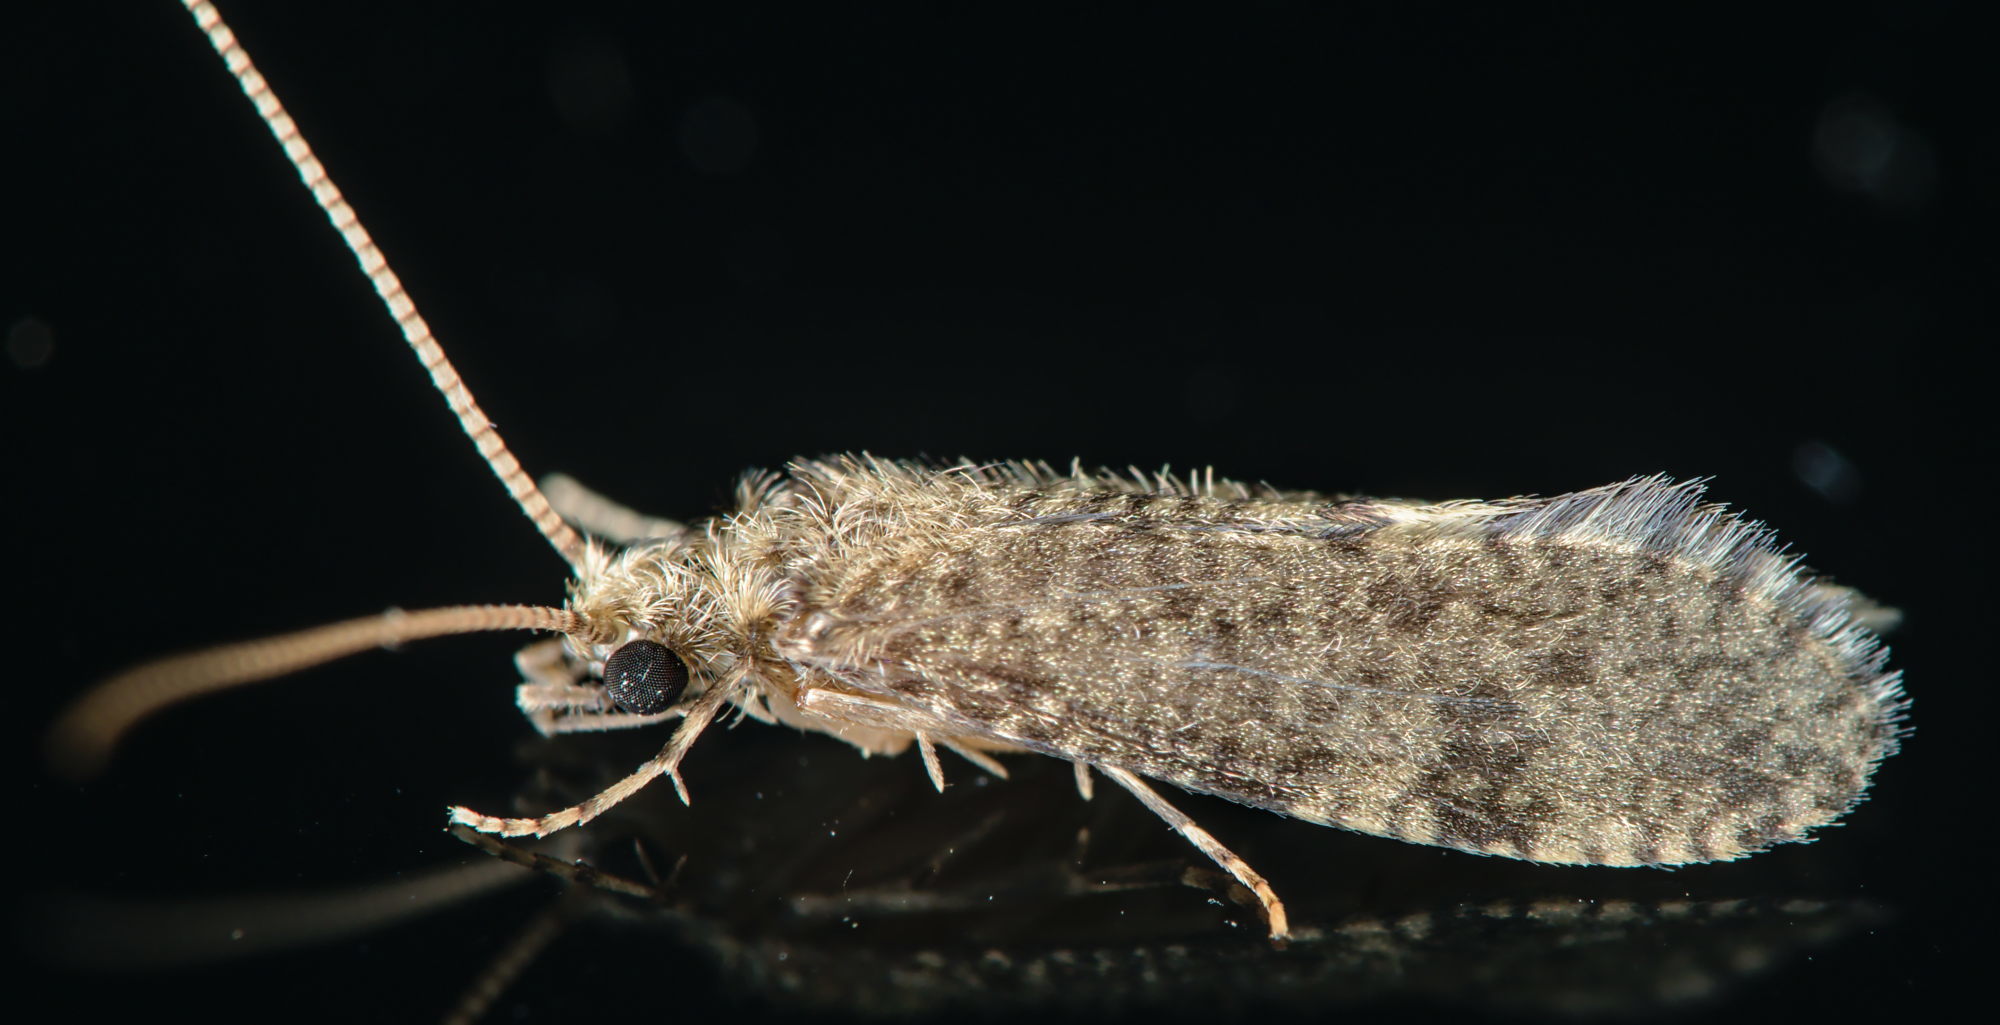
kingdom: Animalia
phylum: Arthropoda
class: Insecta
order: Trichoptera
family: Ecnomidae
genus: Ecnomus
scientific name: Ecnomus tenellus
